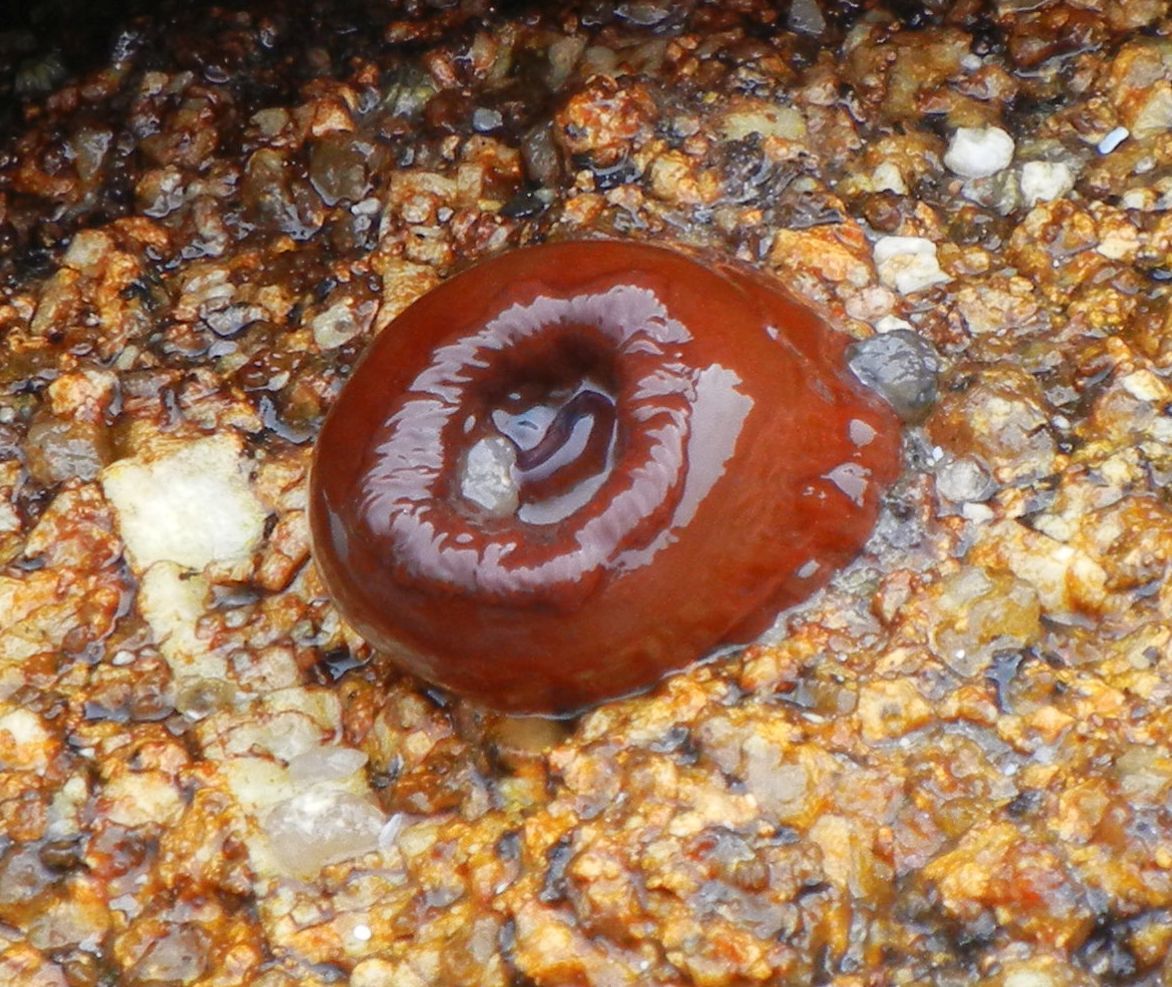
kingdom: Animalia
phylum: Cnidaria
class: Anthozoa
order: Actiniaria
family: Actiniidae
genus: Actinia
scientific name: Actinia equina
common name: Beadlet anemone
